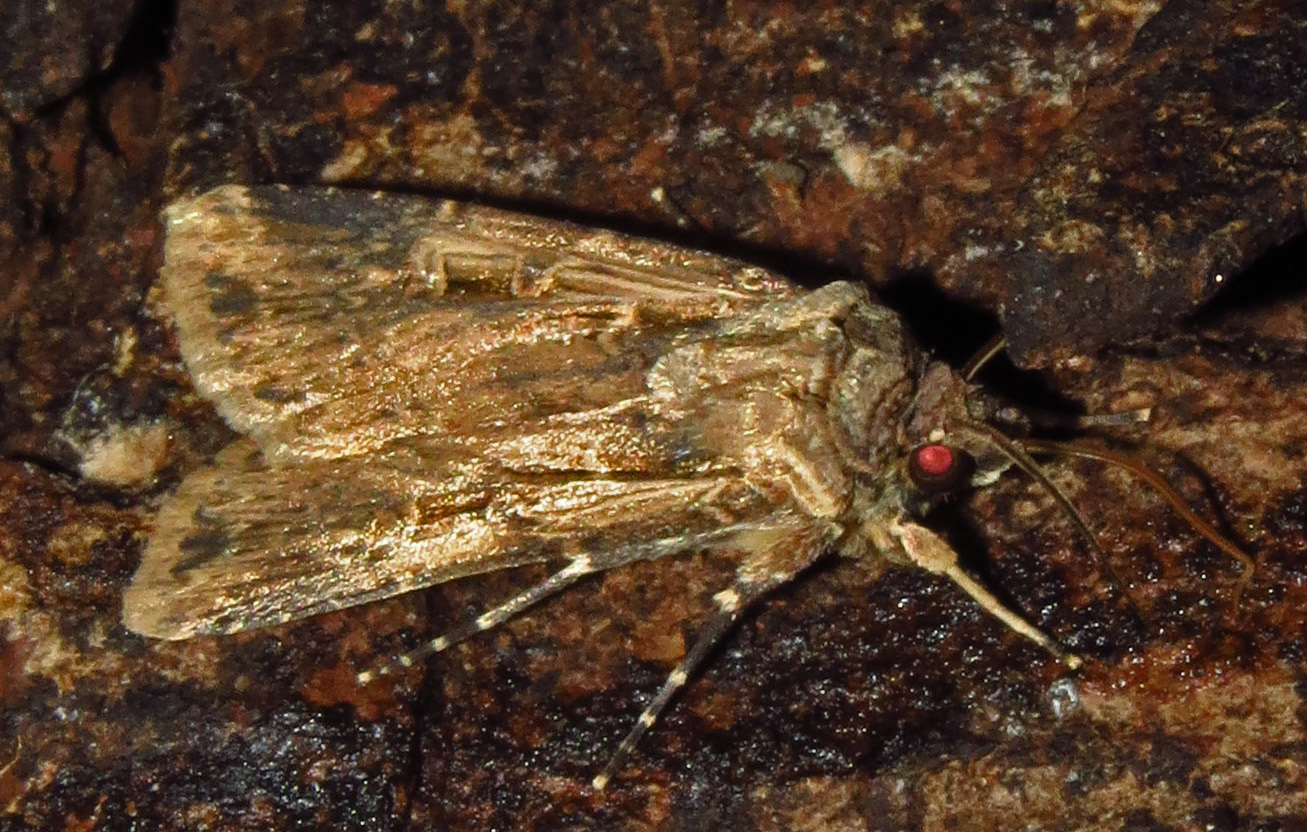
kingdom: Animalia
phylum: Arthropoda
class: Insecta
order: Lepidoptera
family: Noctuidae
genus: Feltia
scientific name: Feltia subterranea
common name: Granulate cutworm
